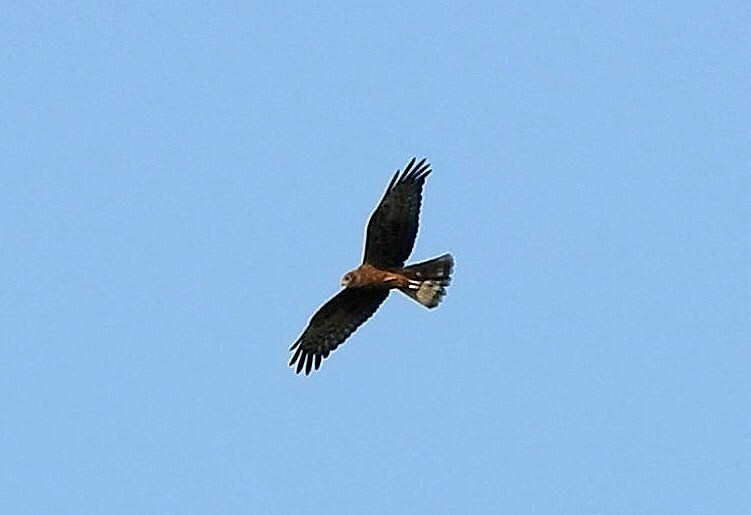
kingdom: Animalia
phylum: Chordata
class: Aves
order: Accipitriformes
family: Accipitridae
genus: Circus
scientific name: Circus melanoleucos
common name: Pied harrier
